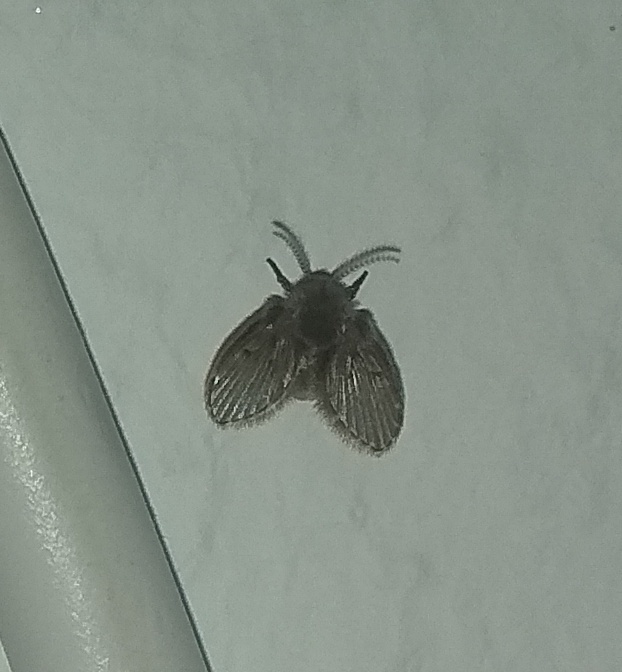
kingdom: Animalia
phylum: Arthropoda
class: Insecta
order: Diptera
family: Psychodidae
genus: Clogmia
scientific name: Clogmia albipunctatus
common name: White-spotted moth fly
